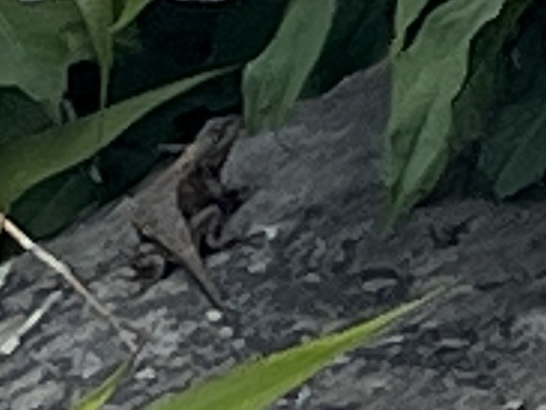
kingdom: Animalia
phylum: Chordata
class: Squamata
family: Phrynosomatidae
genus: Sceloporus
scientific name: Sceloporus undulatus
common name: Eastern fence lizard
